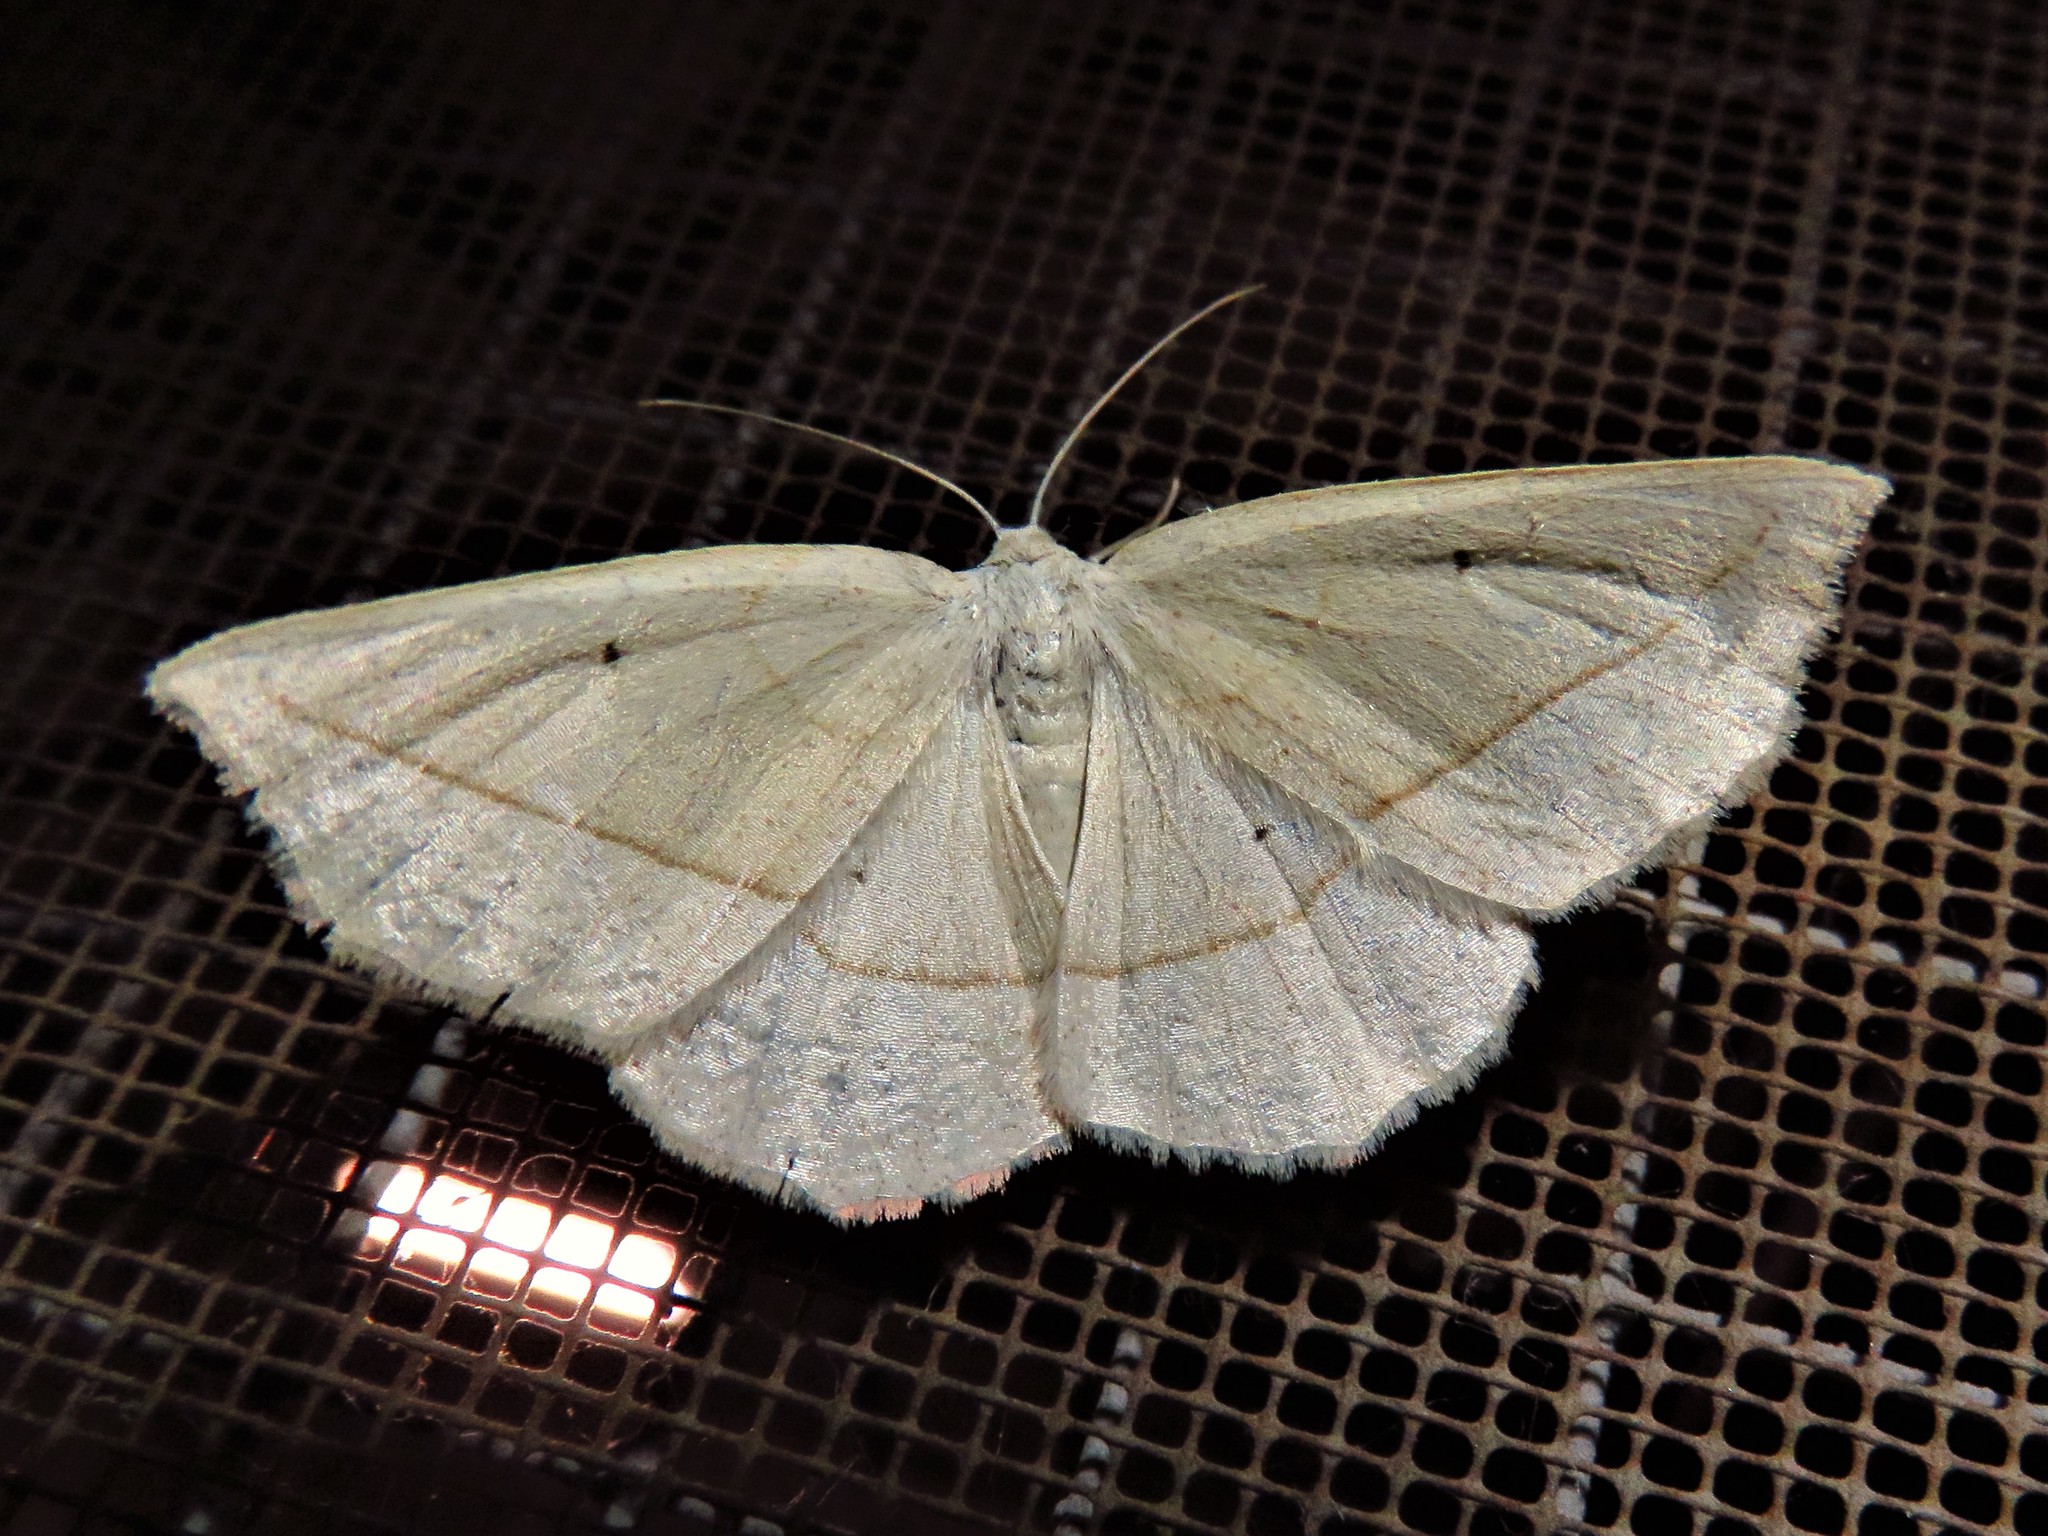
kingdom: Animalia
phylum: Arthropoda
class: Insecta
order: Lepidoptera
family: Geometridae
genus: Eusarca
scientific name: Eusarca confusaria
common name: Confused eusarca
